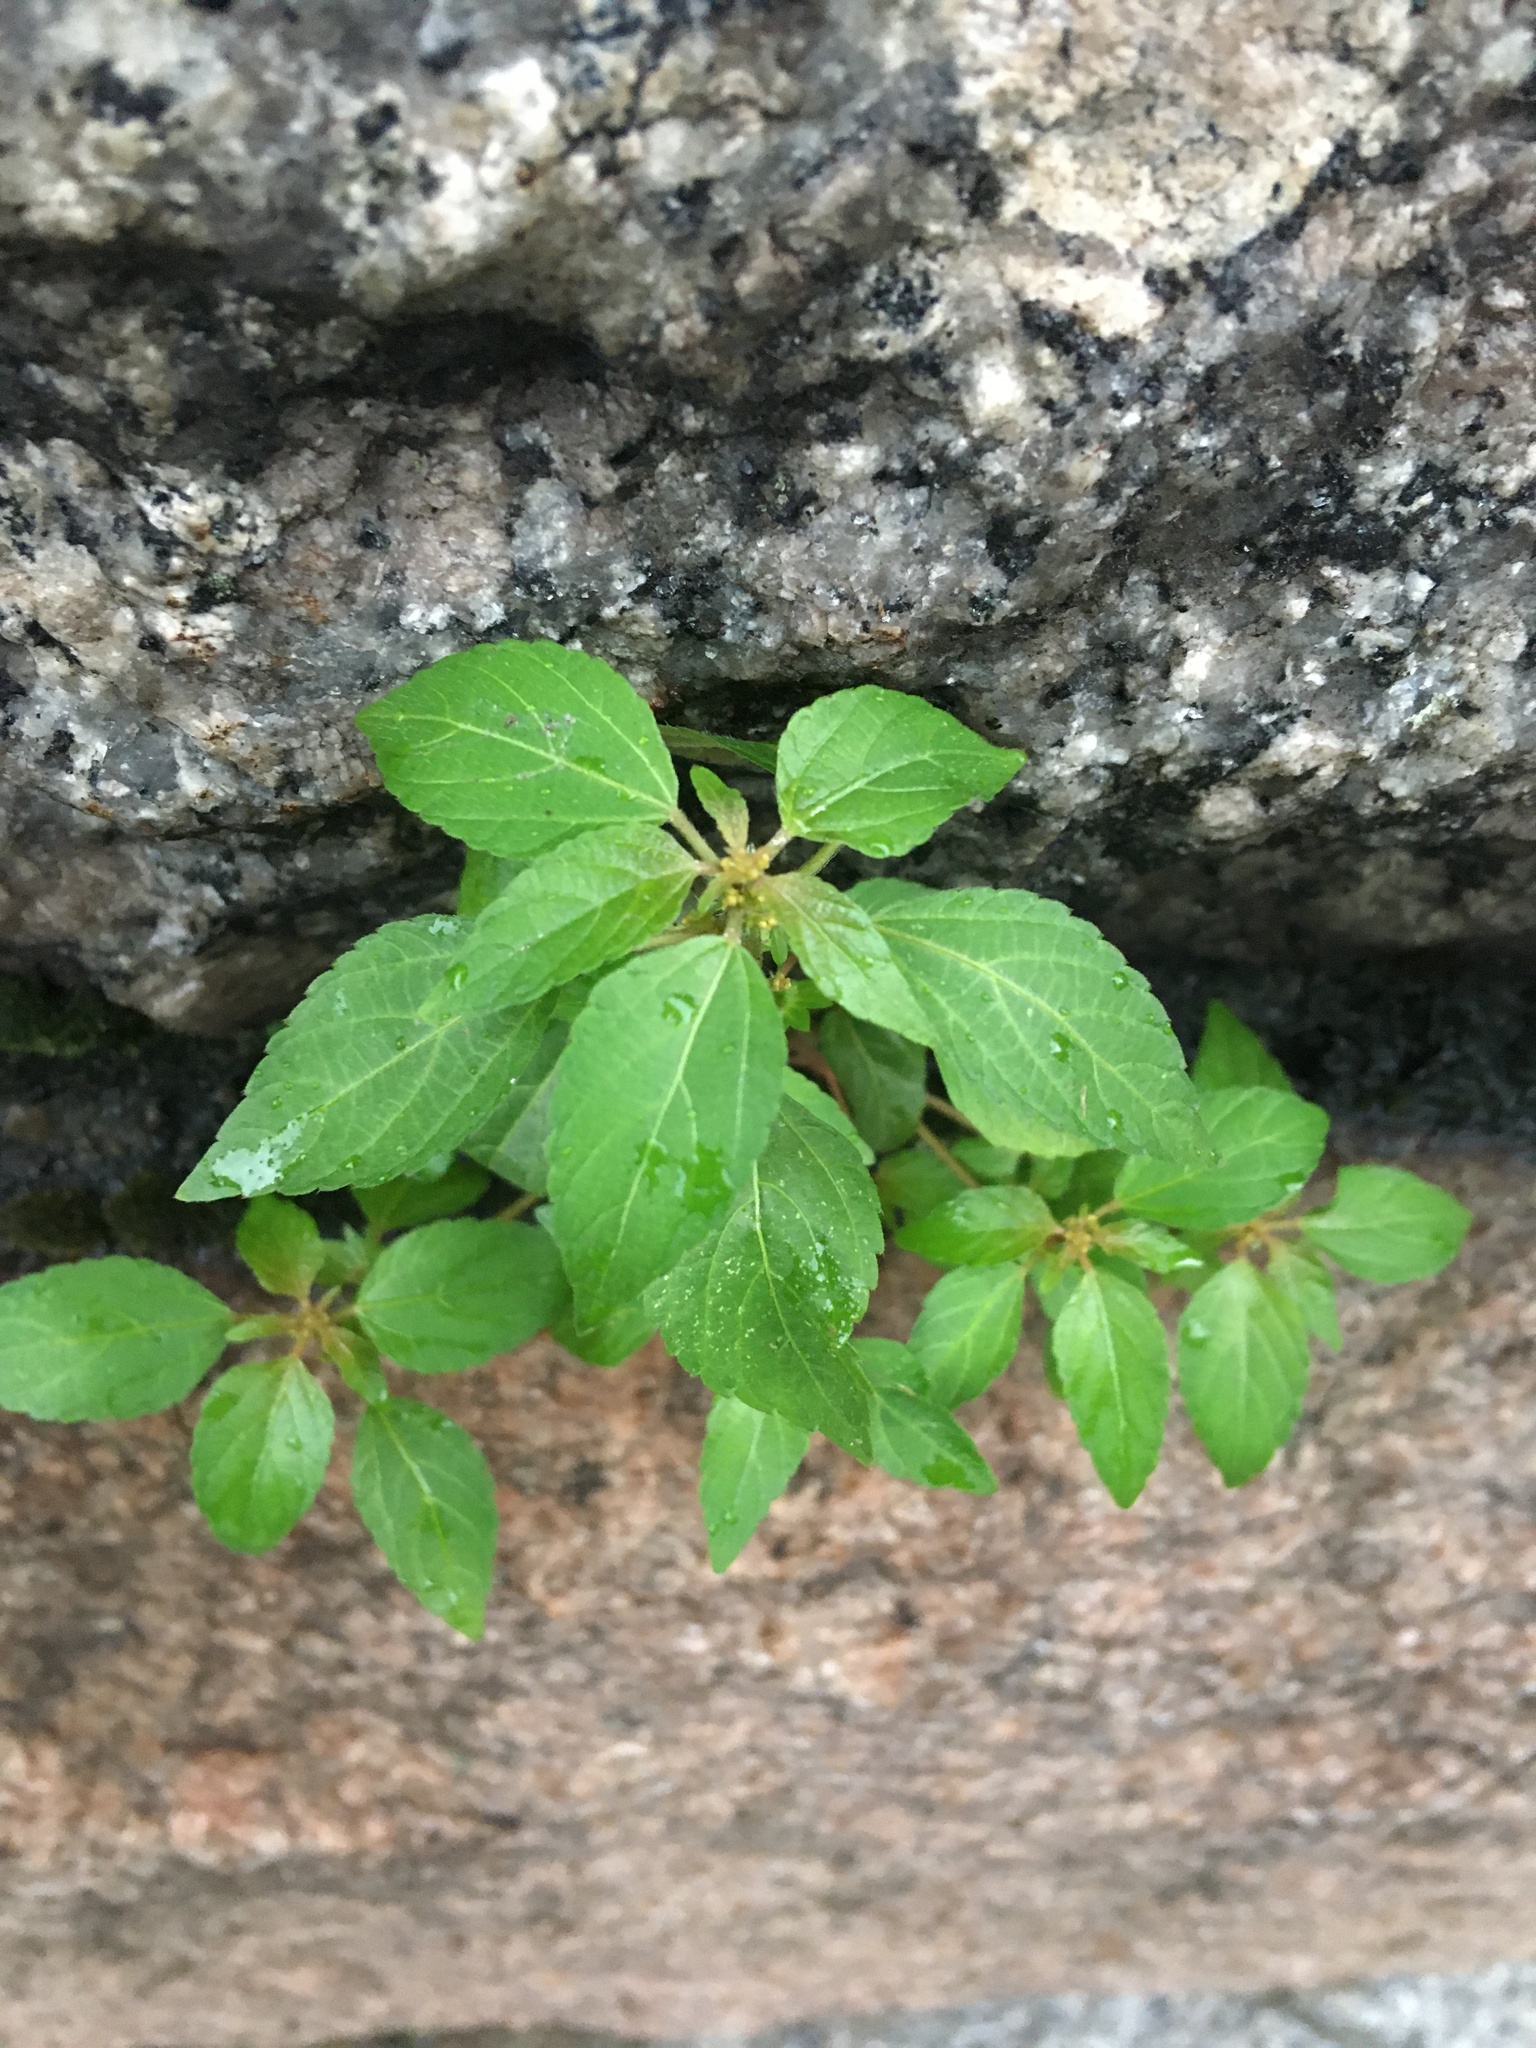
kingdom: Plantae
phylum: Tracheophyta
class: Magnoliopsida
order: Malpighiales
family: Euphorbiaceae
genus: Acalypha
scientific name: Acalypha rhomboidea
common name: Rhombic copperleaf
